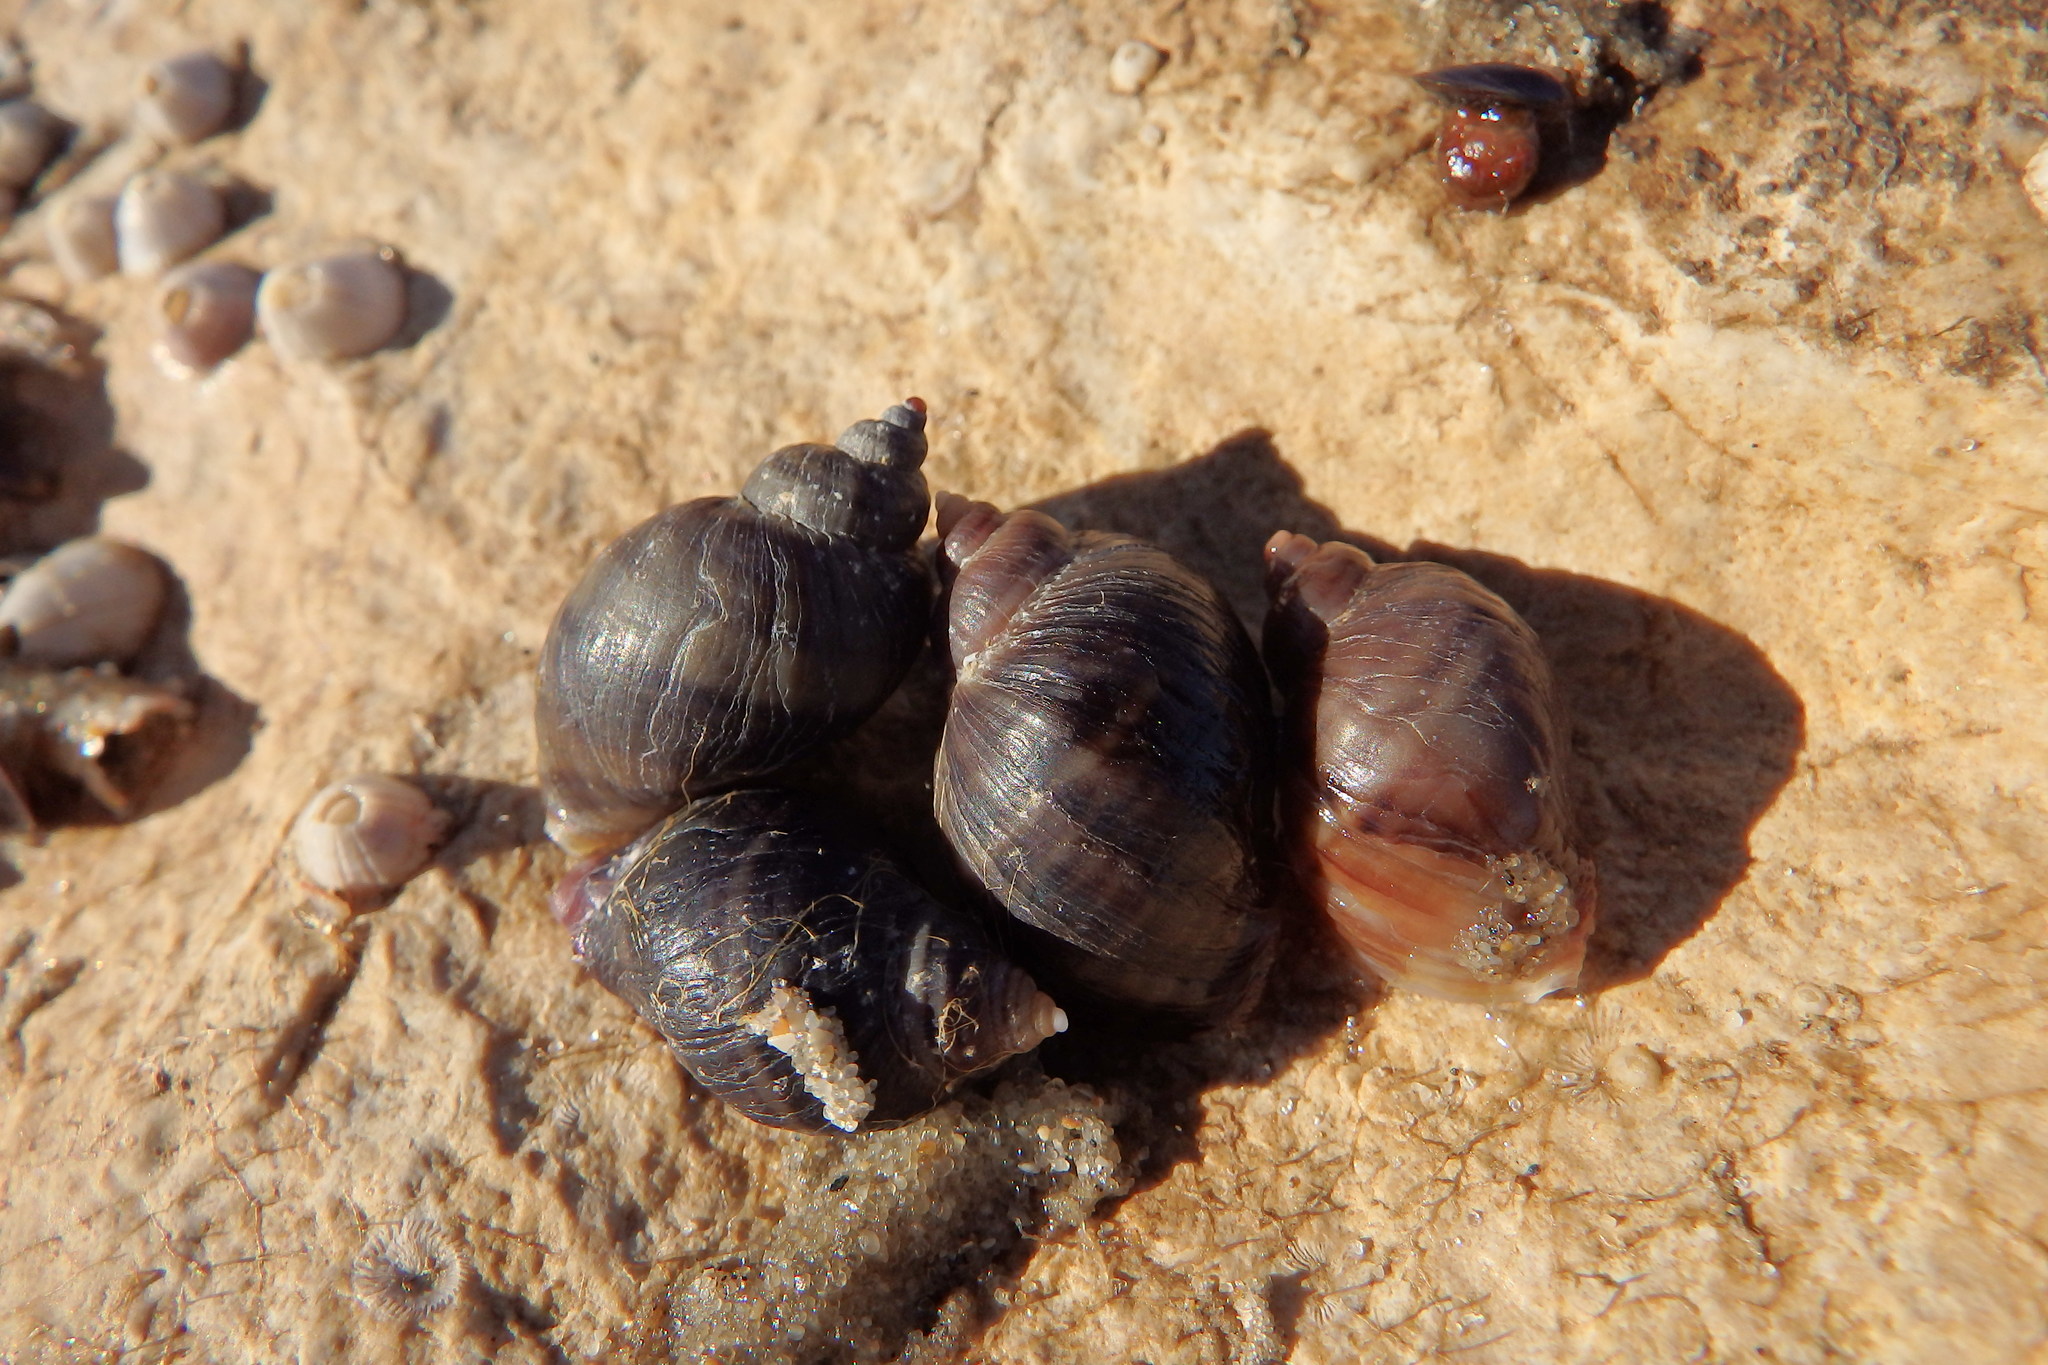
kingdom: Animalia
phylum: Mollusca
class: Gastropoda
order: Neogastropoda
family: Muricidae
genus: Nucella
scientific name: Nucella lapillus
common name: Dog whelk
